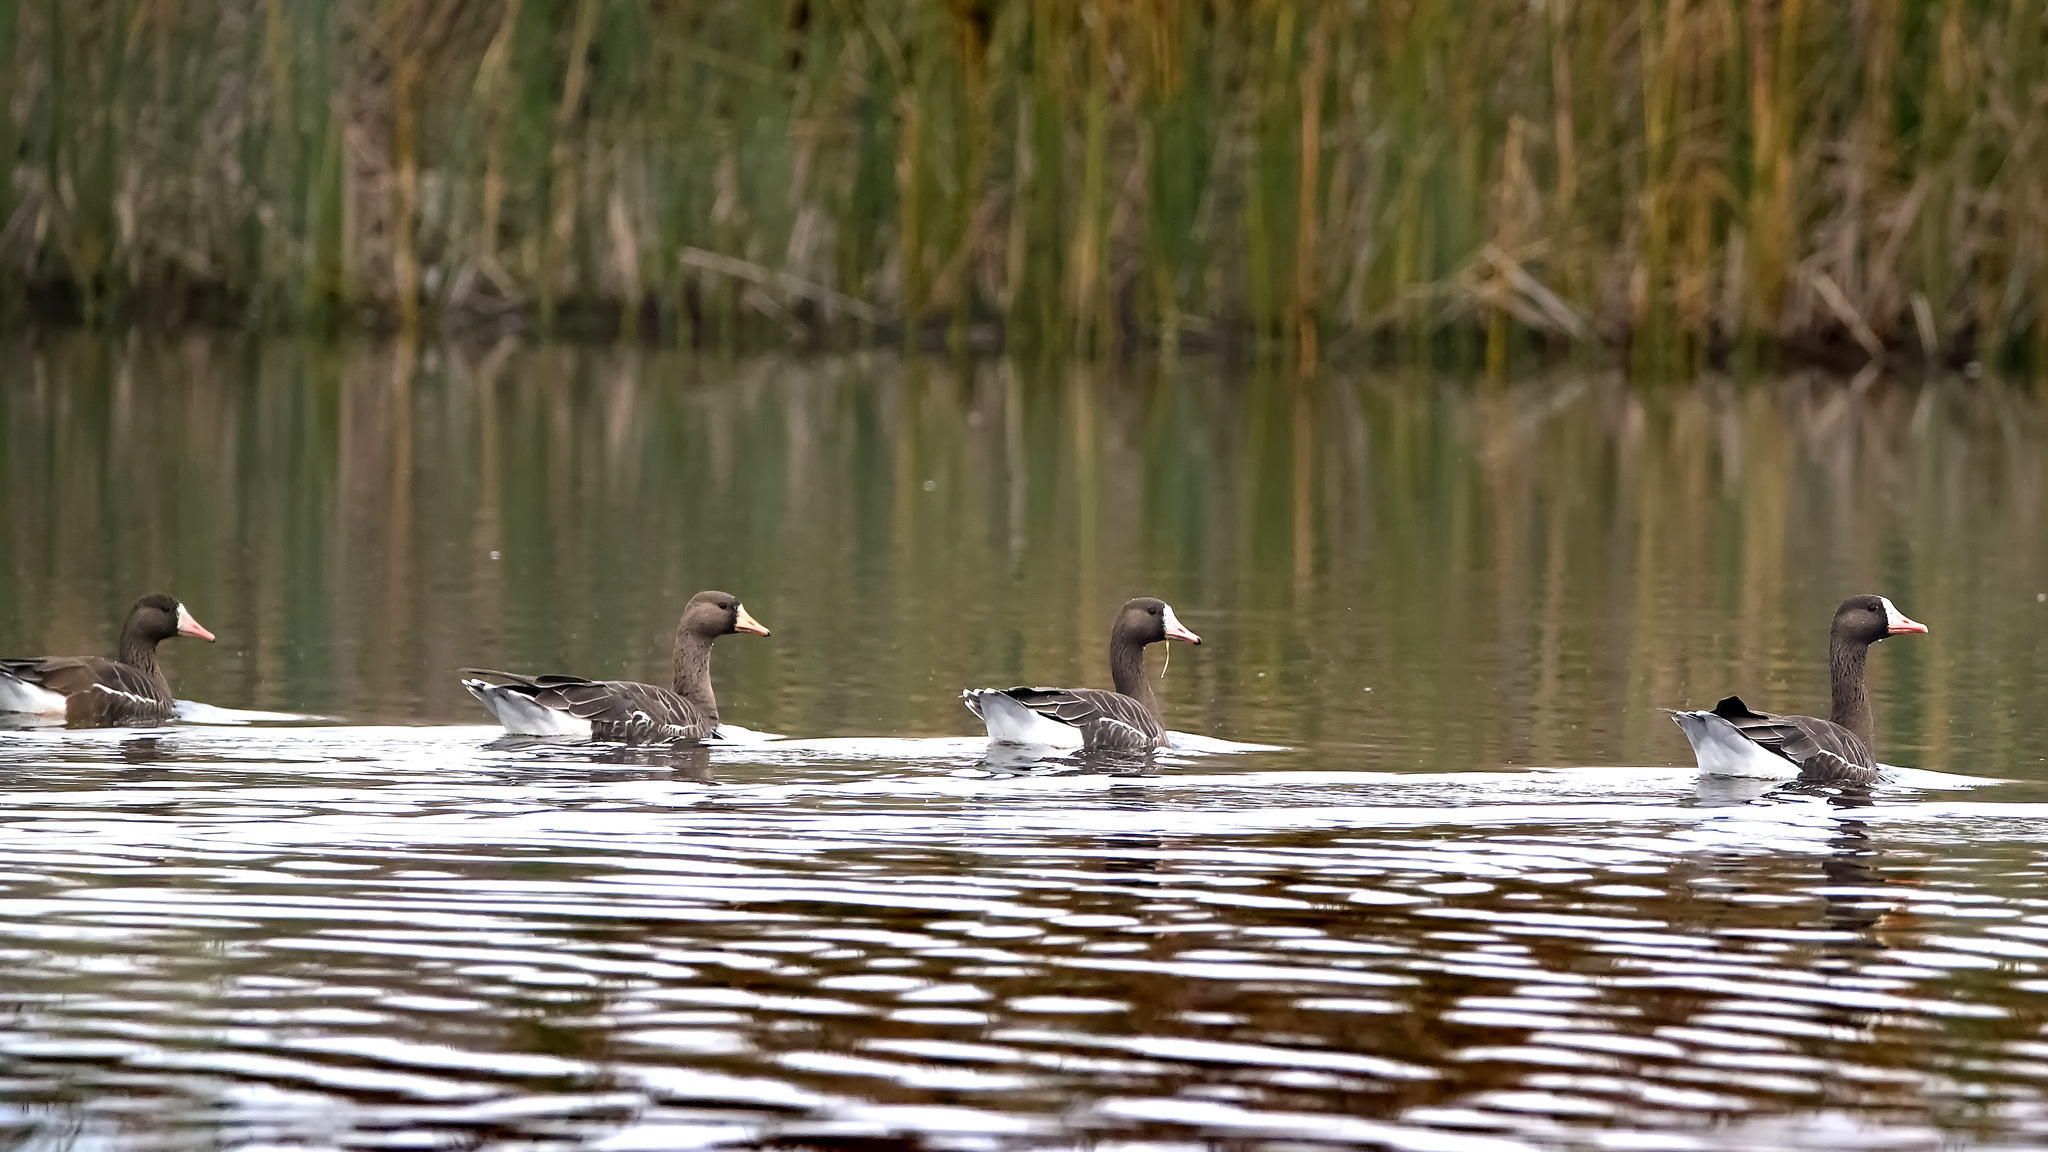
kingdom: Animalia
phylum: Chordata
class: Aves
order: Anseriformes
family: Anatidae
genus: Anser
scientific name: Anser albifrons
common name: Greater white-fronted goose
